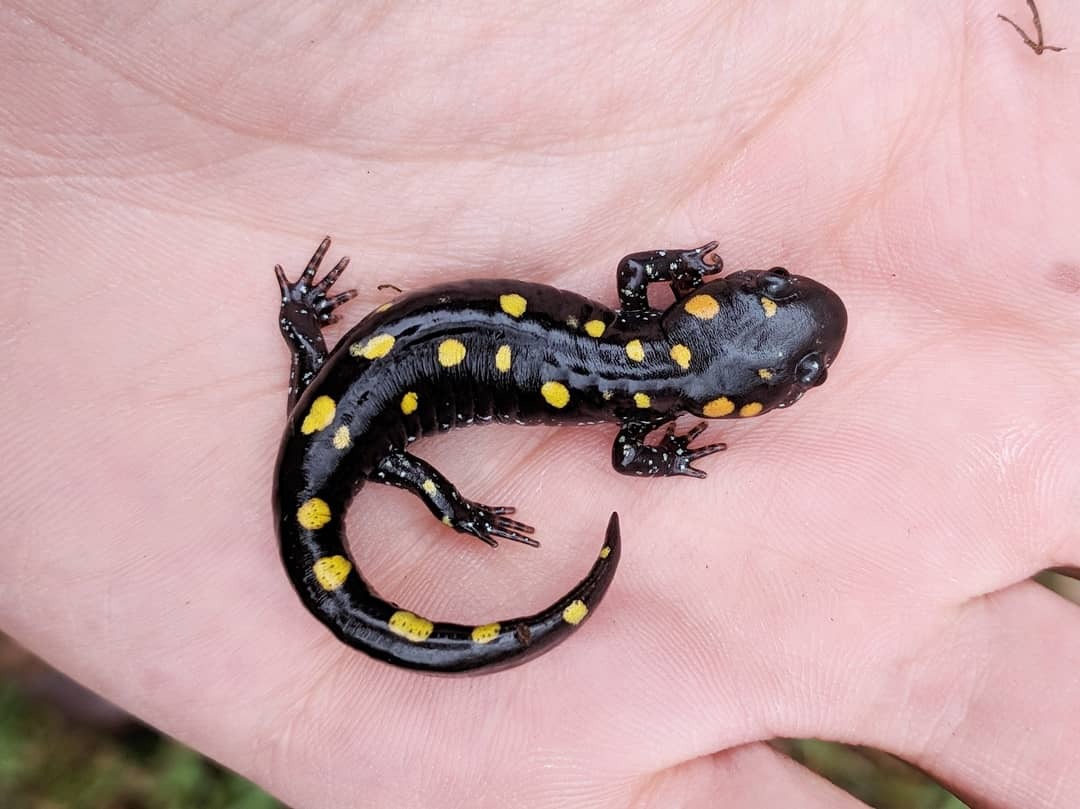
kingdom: Animalia
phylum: Chordata
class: Amphibia
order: Caudata
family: Ambystomatidae
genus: Ambystoma
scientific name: Ambystoma maculatum
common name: Spotted salamander
